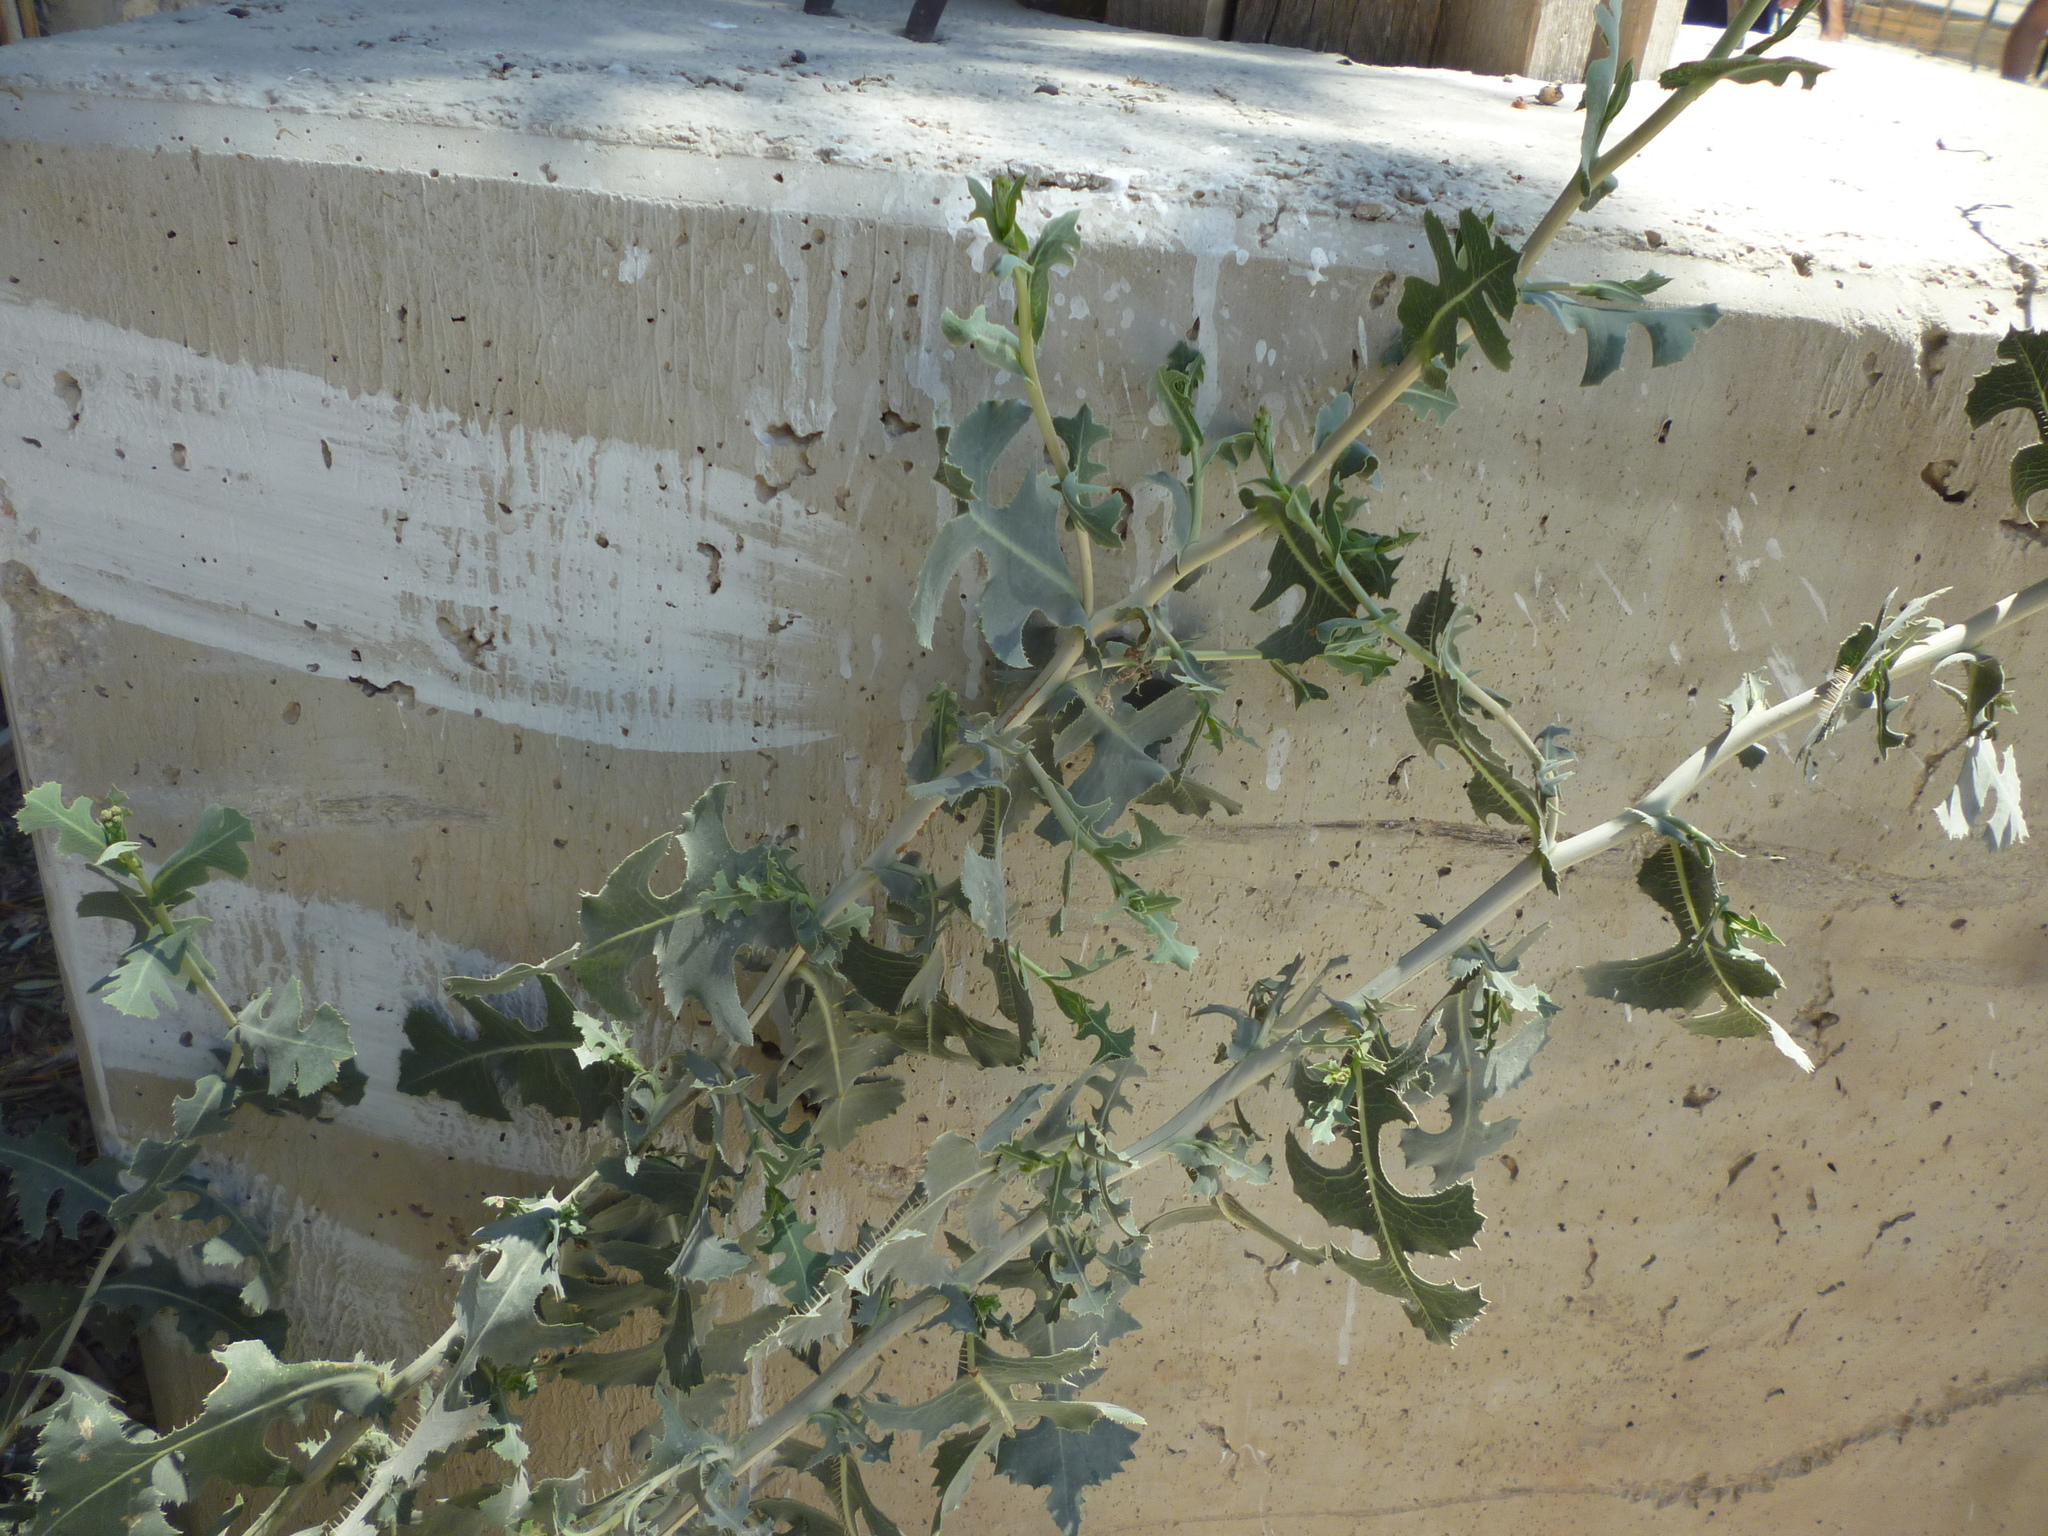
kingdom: Plantae
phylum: Tracheophyta
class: Magnoliopsida
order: Asterales
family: Asteraceae
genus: Lactuca
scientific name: Lactuca serriola
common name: Prickly lettuce
